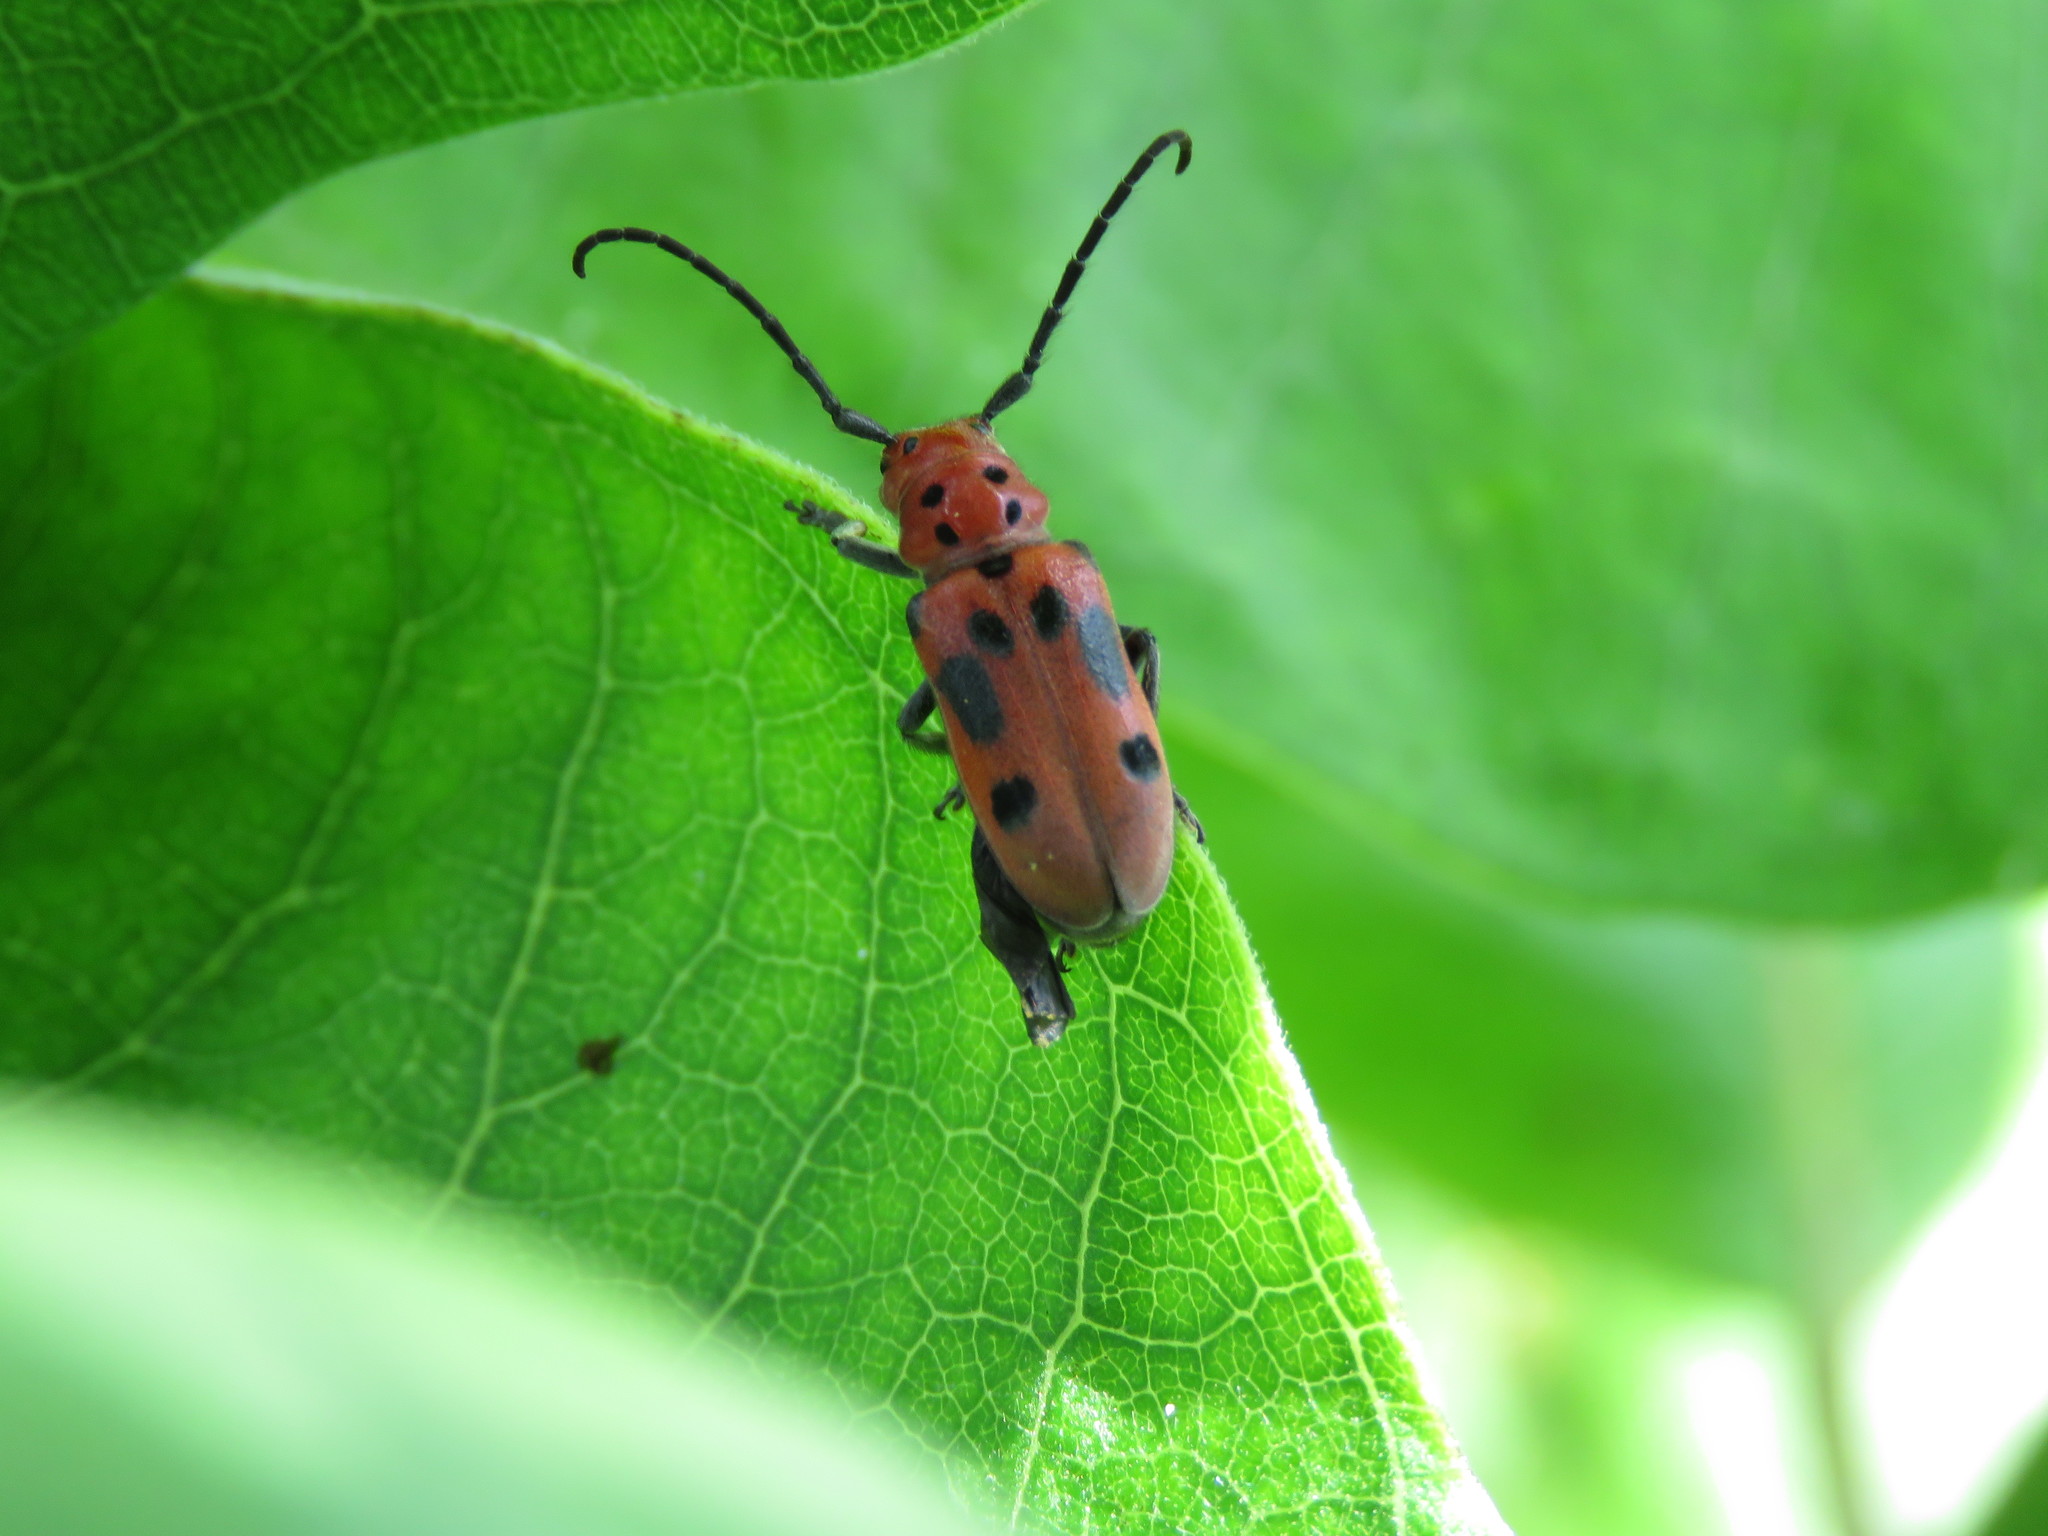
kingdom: Animalia
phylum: Arthropoda
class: Insecta
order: Coleoptera
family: Cerambycidae
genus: Tetraopes
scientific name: Tetraopes tetrophthalmus
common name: Red milkweed beetle
